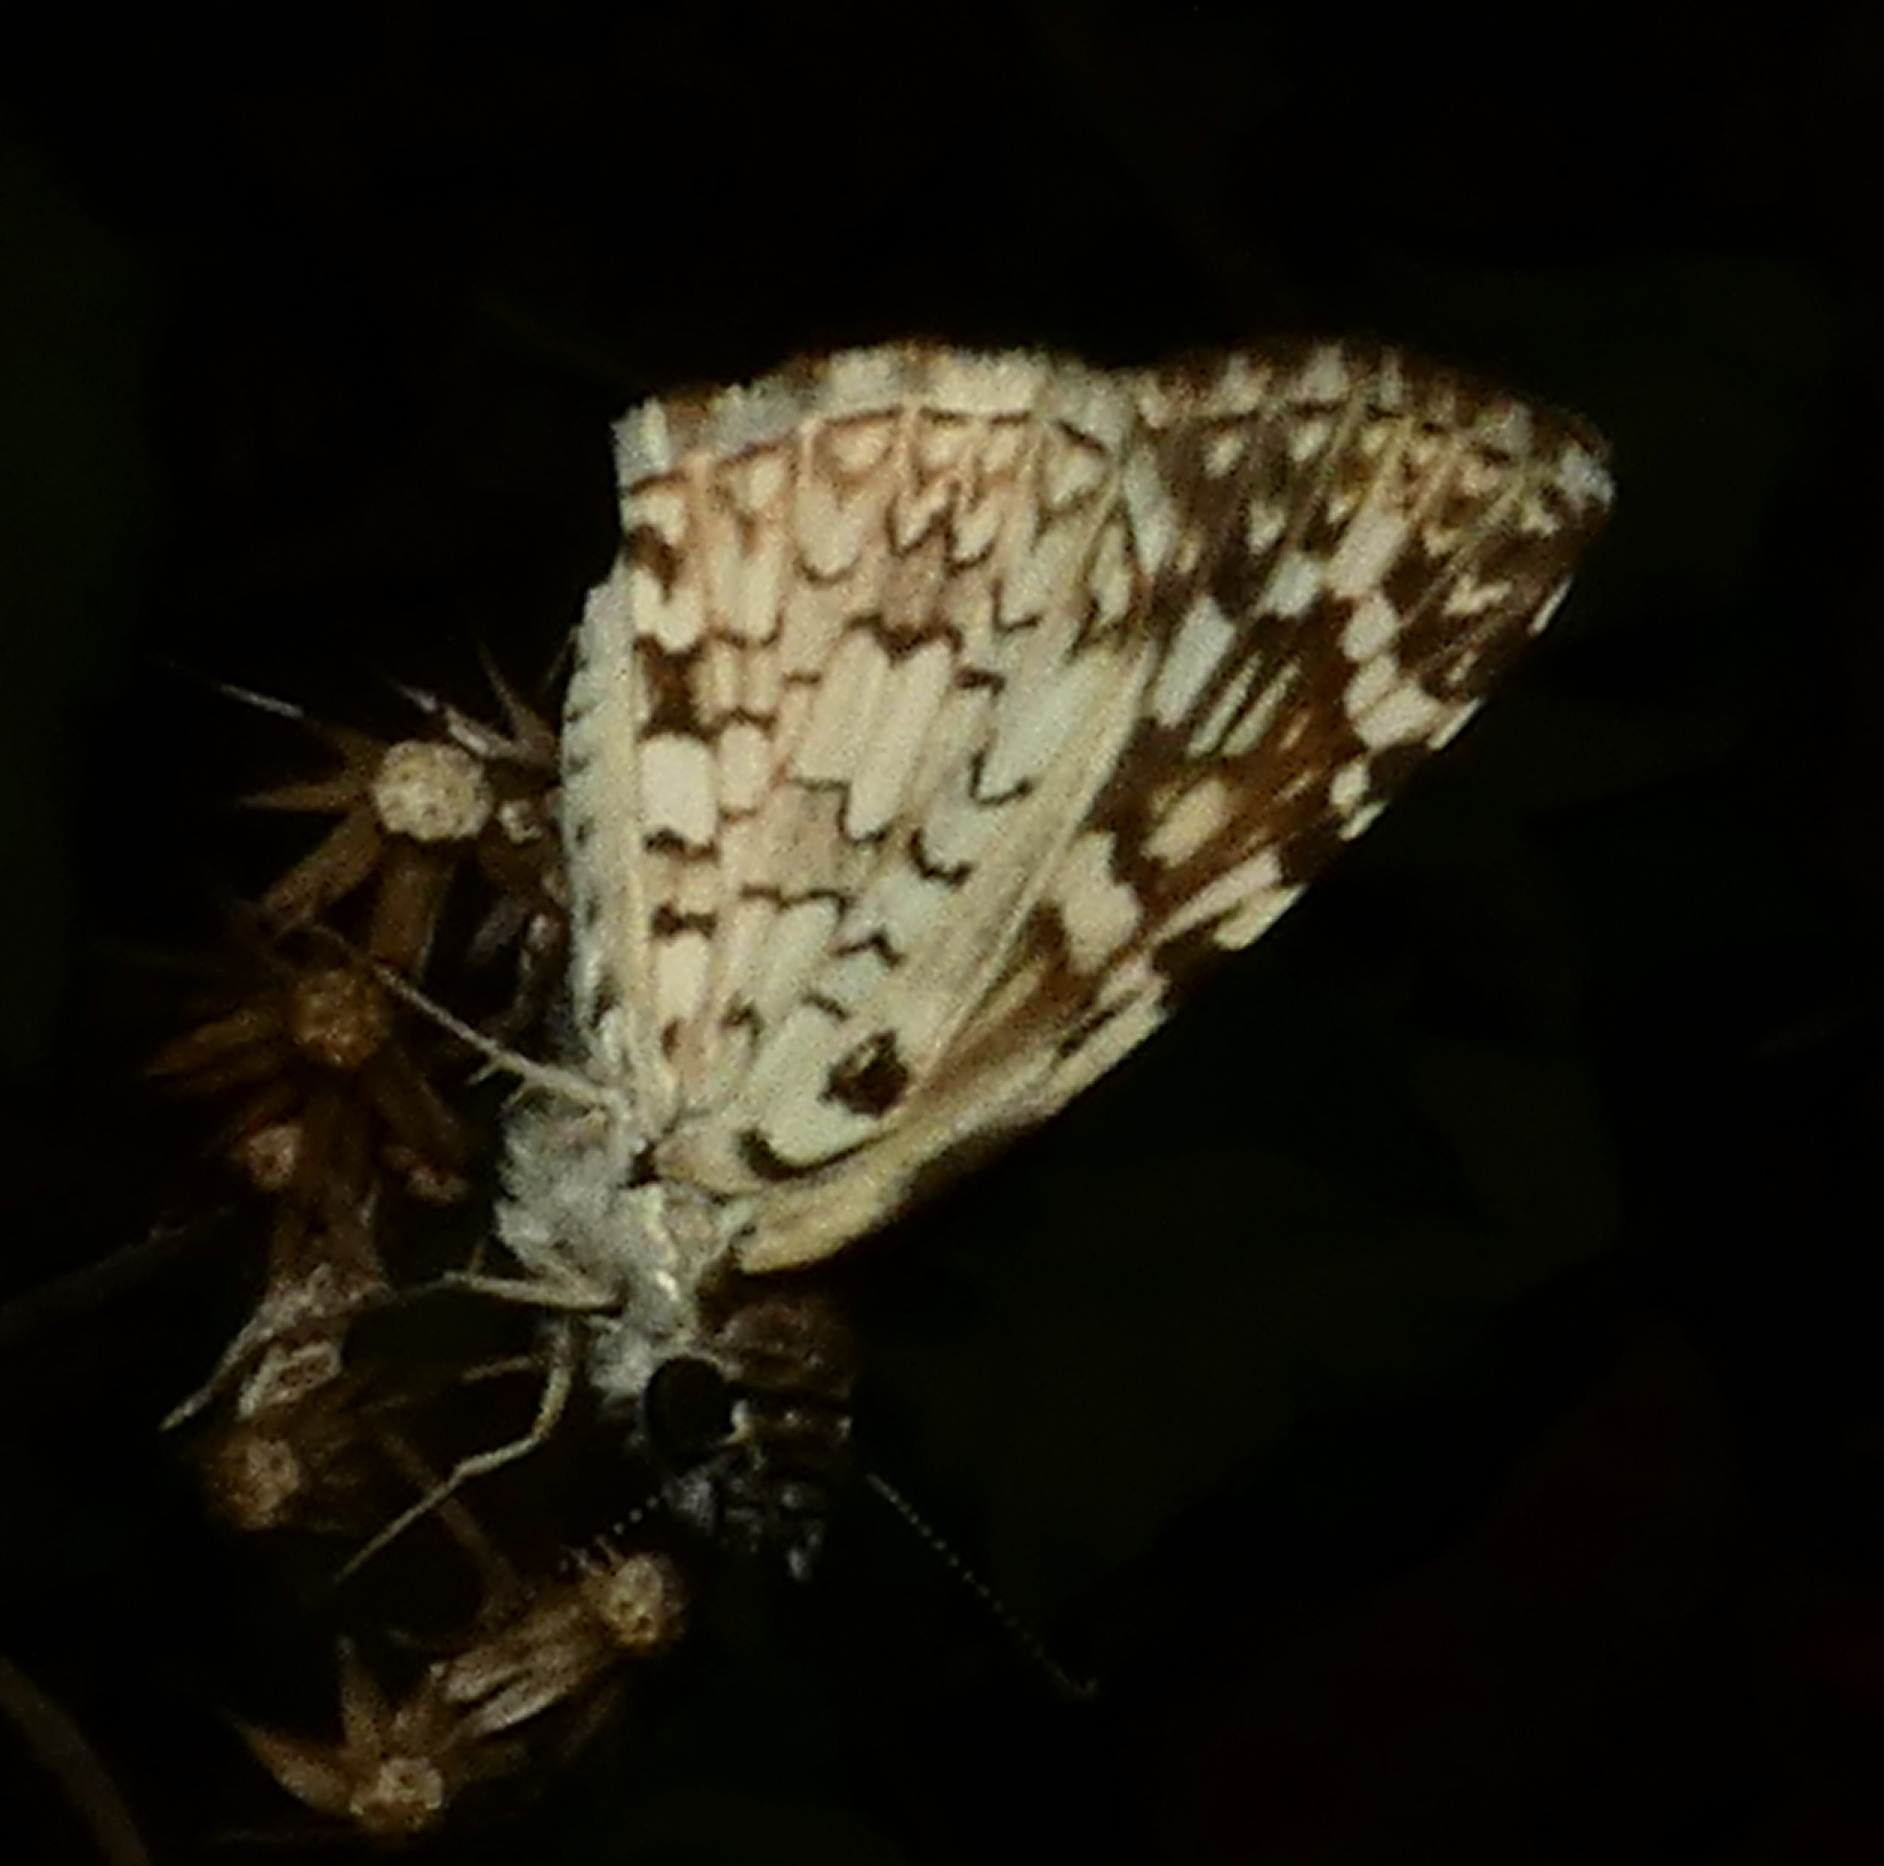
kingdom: Animalia
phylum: Arthropoda
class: Insecta
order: Lepidoptera
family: Hesperiidae
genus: Pyrgus
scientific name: Pyrgus oileus
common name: Tropical checkered-skipper
